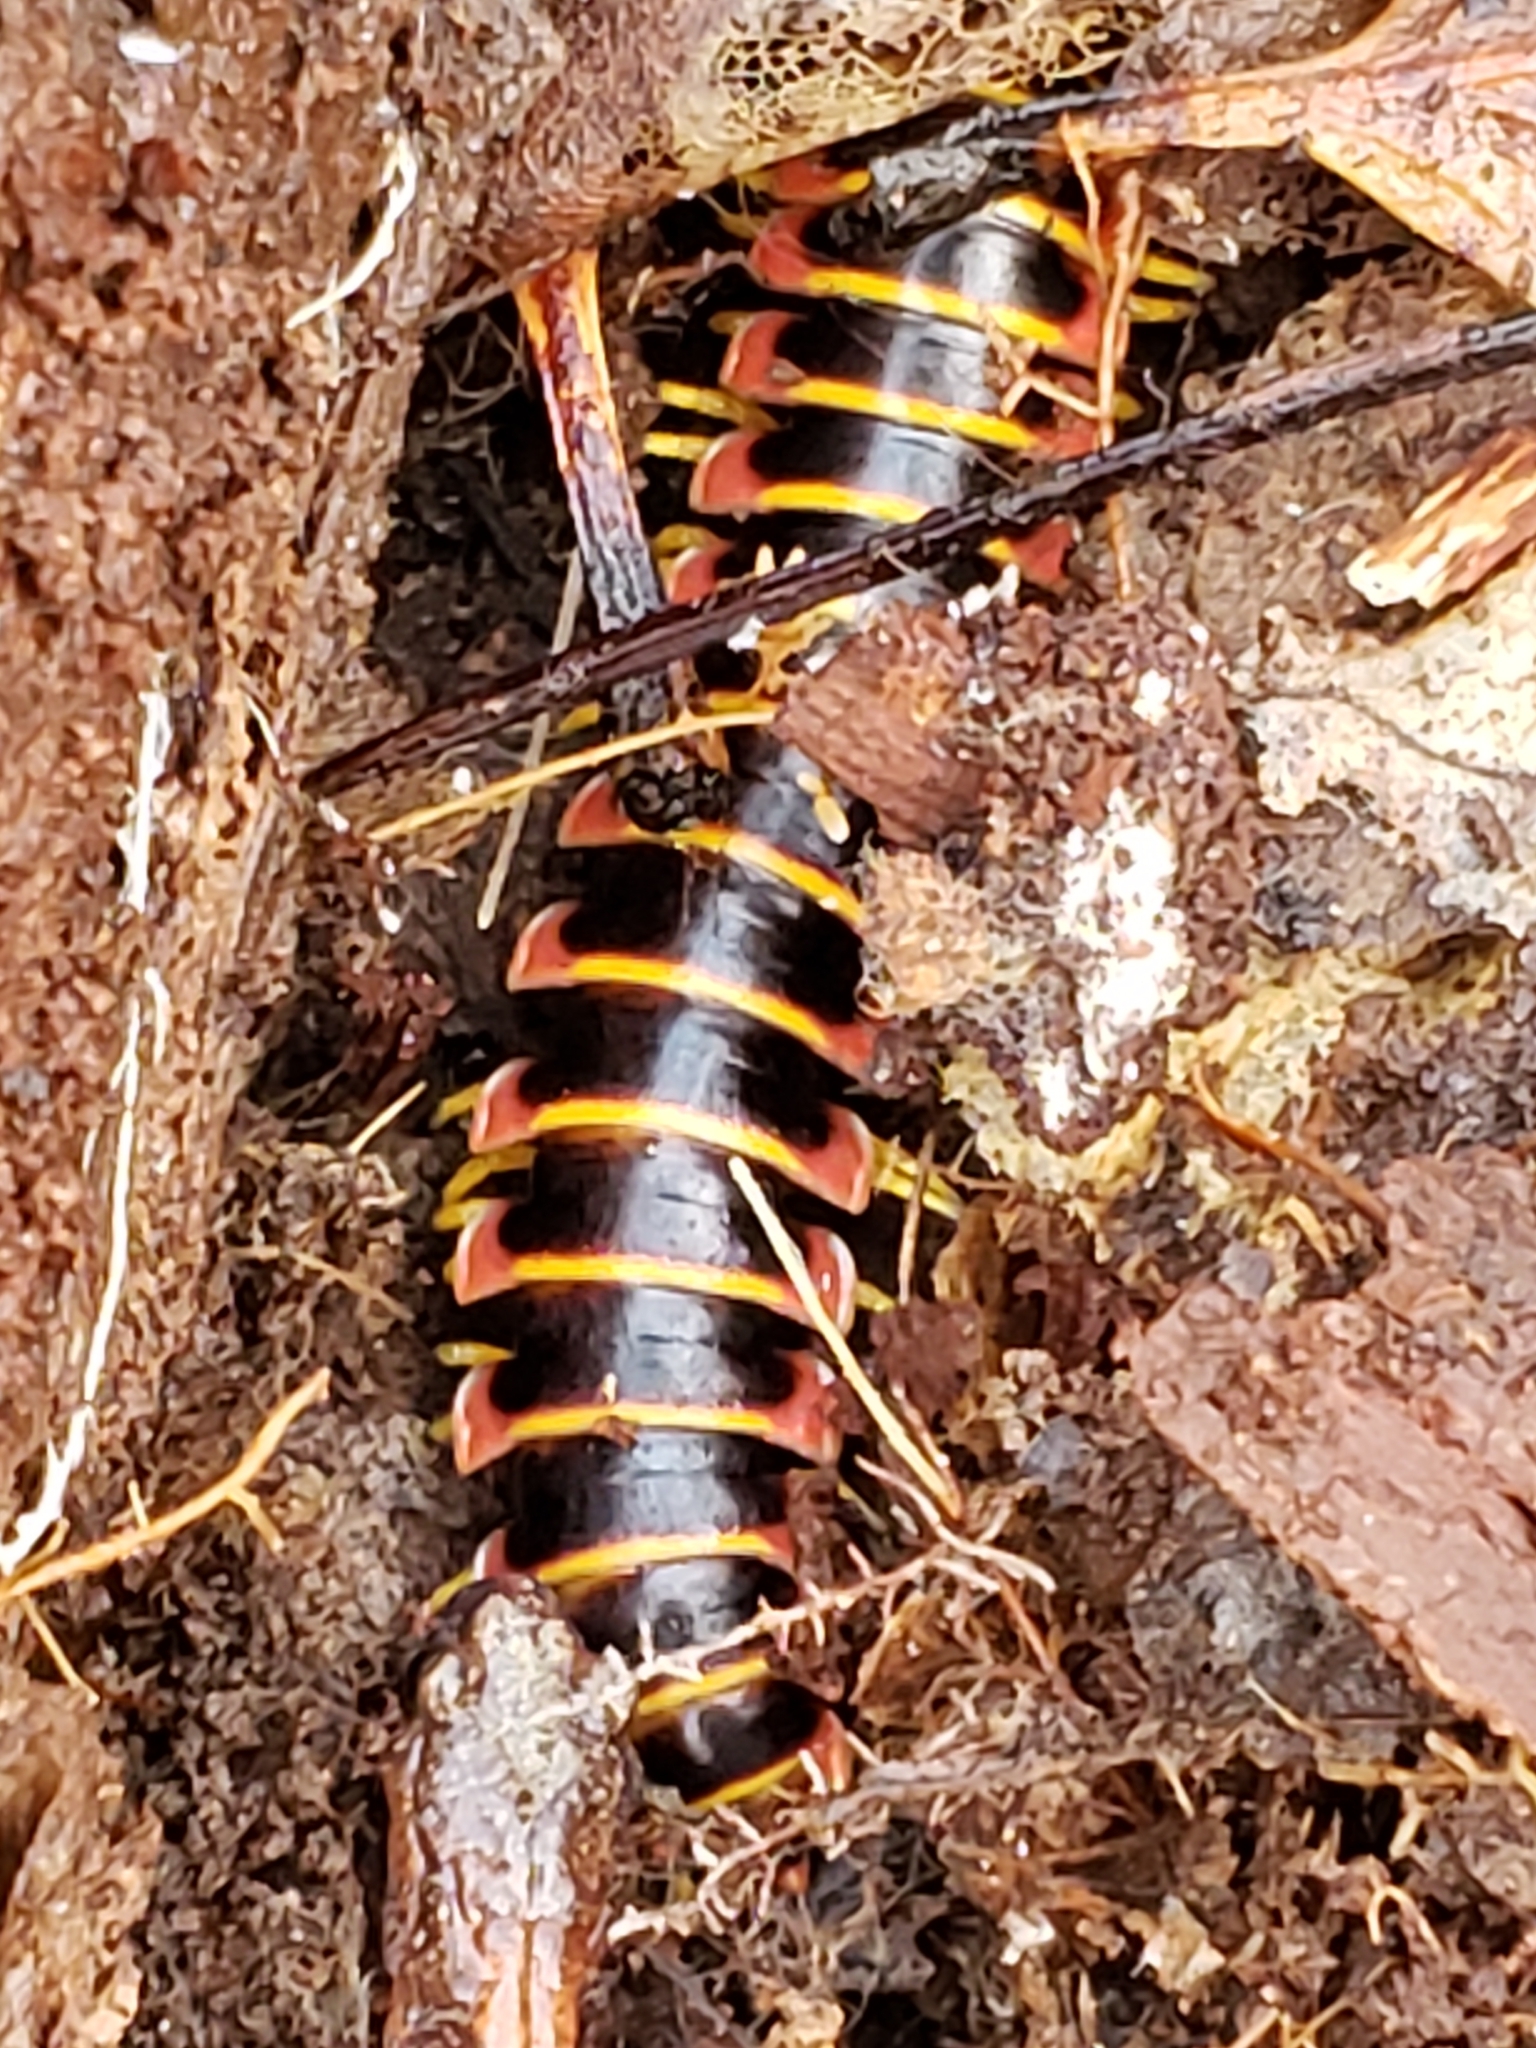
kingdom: Animalia
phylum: Arthropoda
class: Diplopoda
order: Polydesmida
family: Xystodesmidae
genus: Apheloria
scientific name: Apheloria virginiensis
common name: Black-and-gold flat millipede
